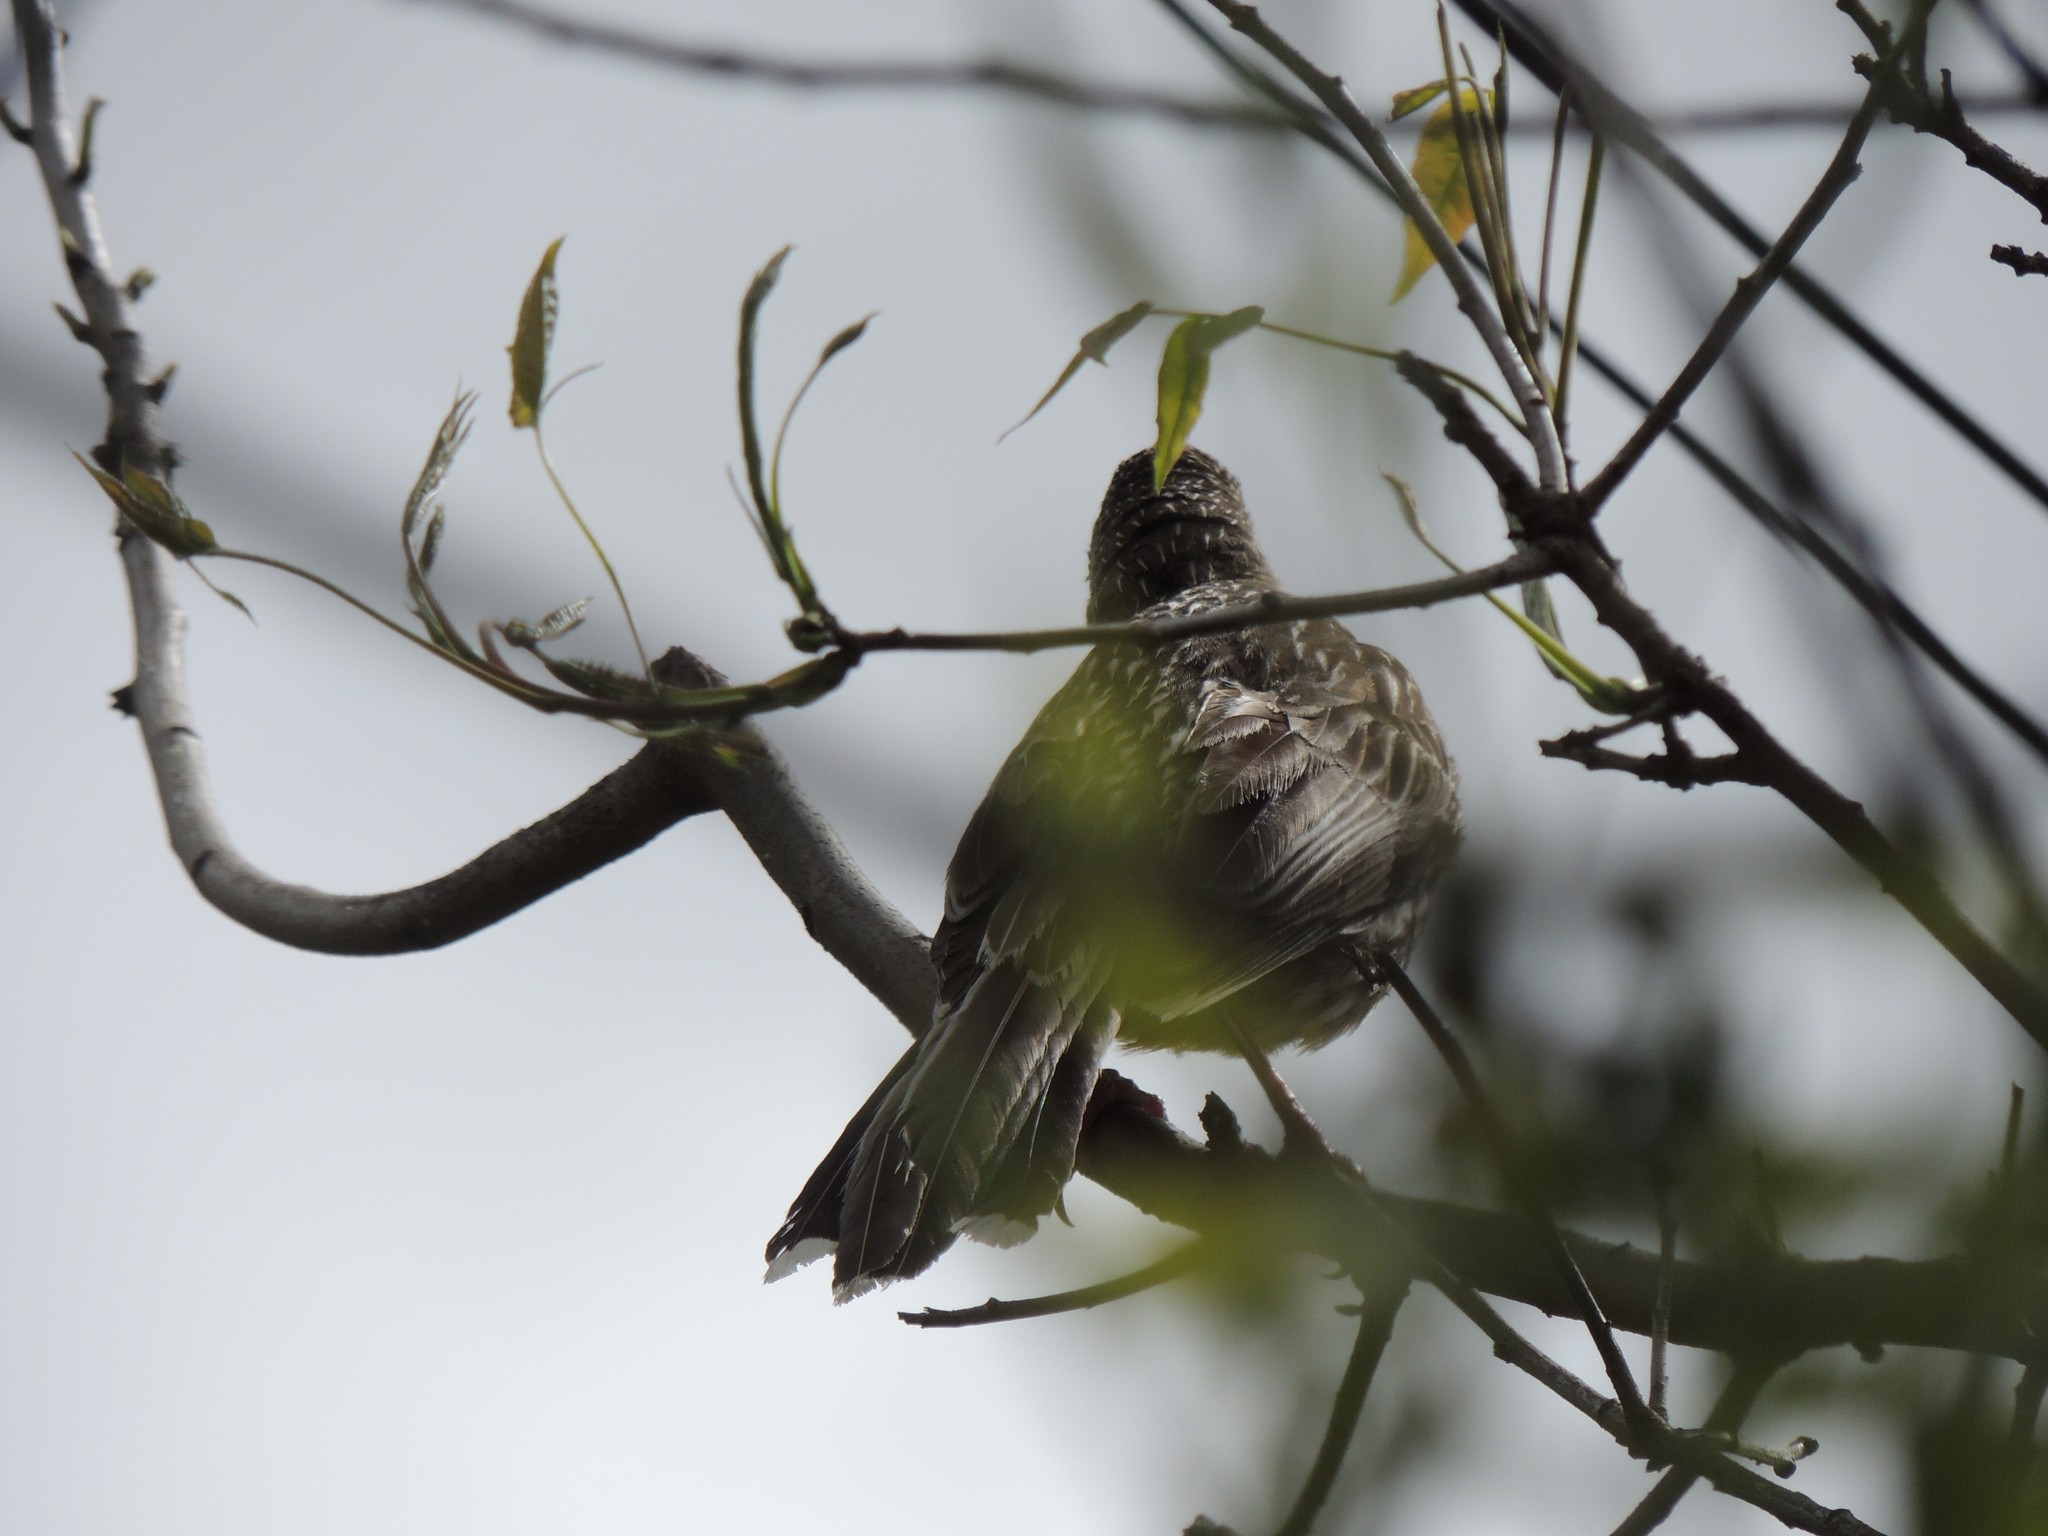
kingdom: Animalia
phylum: Chordata
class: Aves
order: Passeriformes
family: Meliphagidae
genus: Anthochaera
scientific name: Anthochaera carunculata
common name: Red wattlebird
